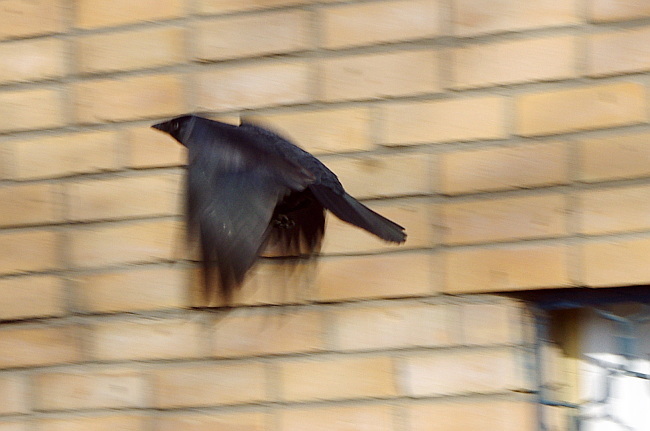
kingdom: Animalia
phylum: Chordata
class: Aves
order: Passeriformes
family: Corvidae
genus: Coloeus
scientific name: Coloeus monedula
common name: Western jackdaw
